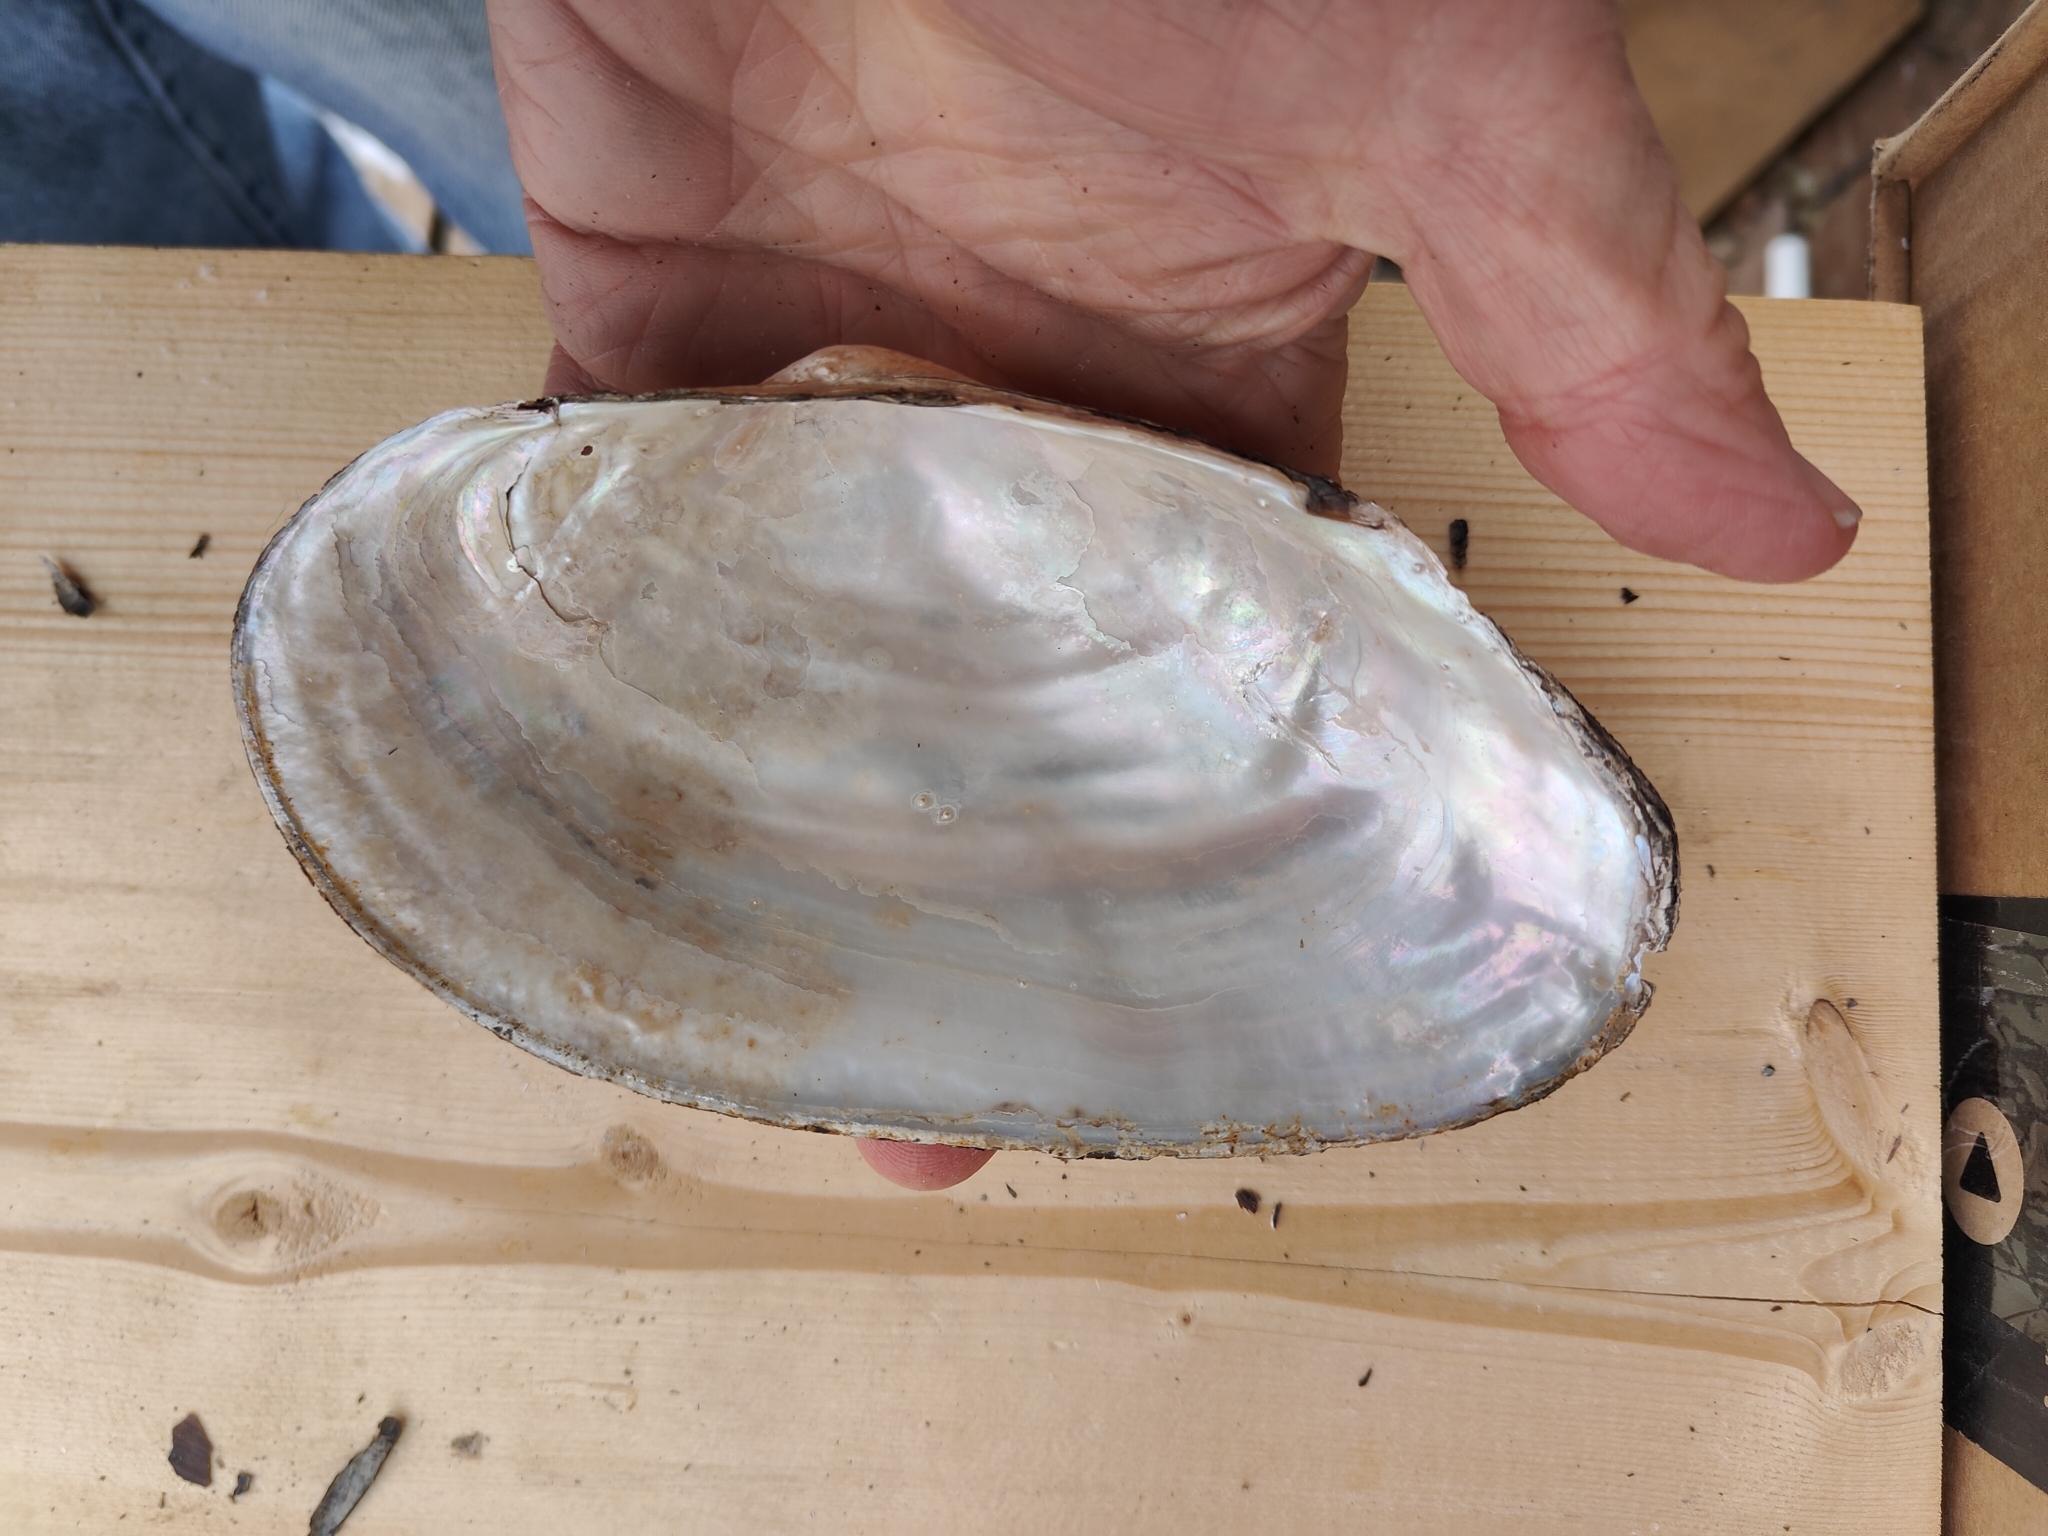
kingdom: Animalia
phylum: Mollusca
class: Bivalvia
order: Unionida
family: Unionidae
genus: Pyganodon
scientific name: Pyganodon grandis
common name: Giant floater
